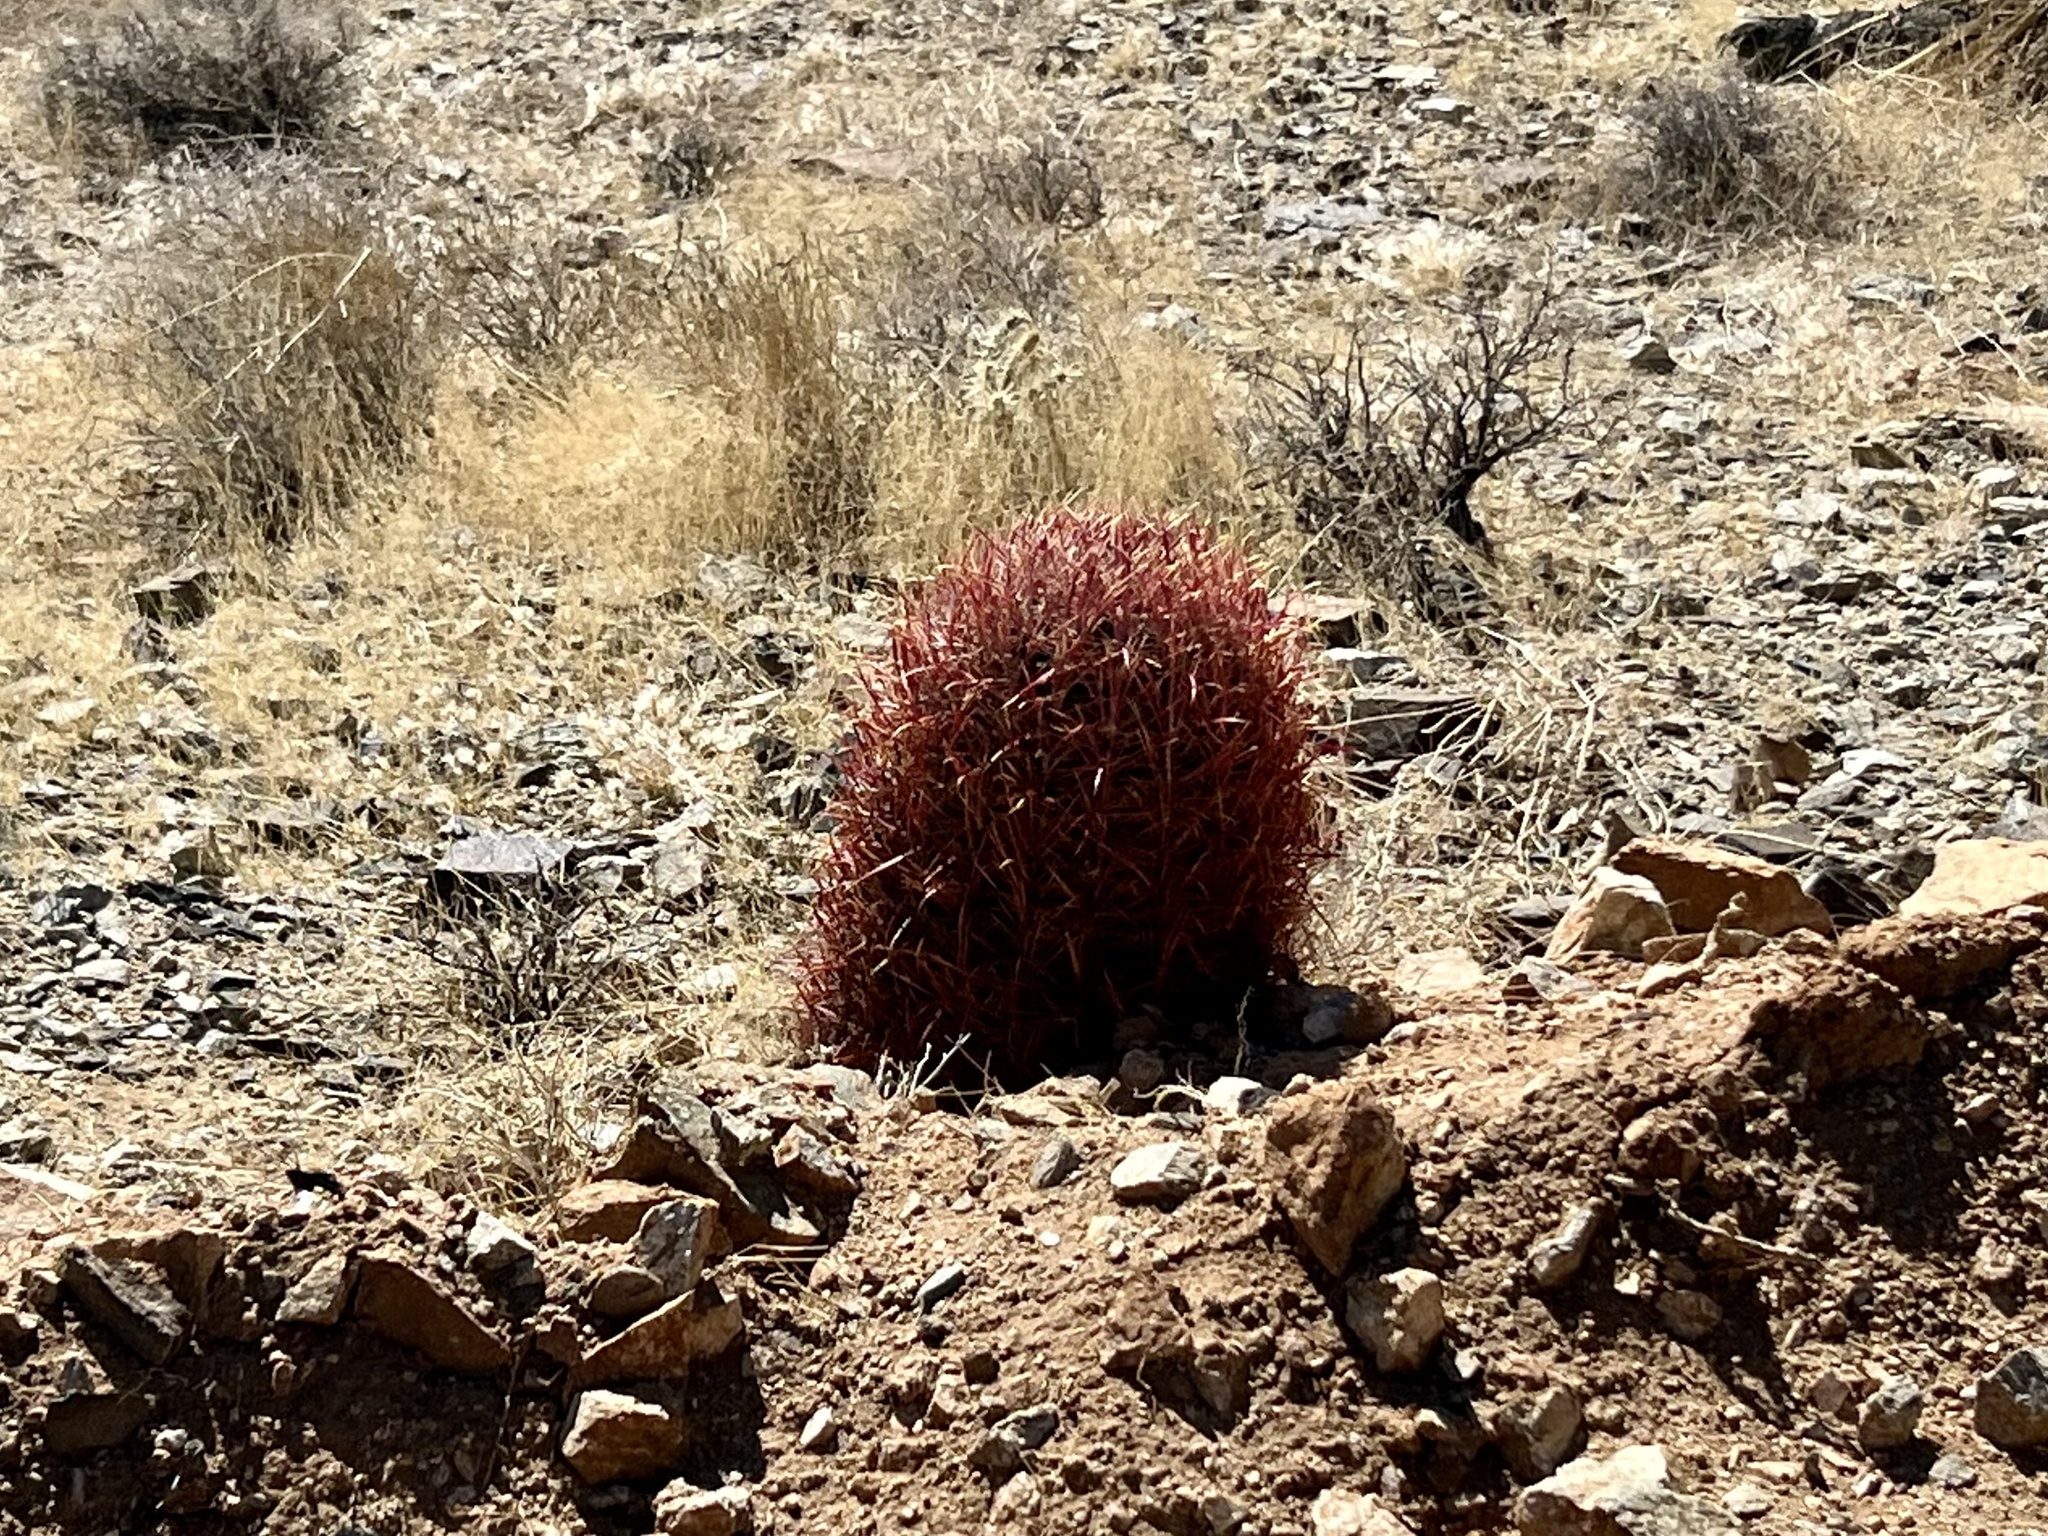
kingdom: Plantae
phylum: Tracheophyta
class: Magnoliopsida
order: Caryophyllales
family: Cactaceae
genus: Ferocactus
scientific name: Ferocactus cylindraceus
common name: California barrel cactus
